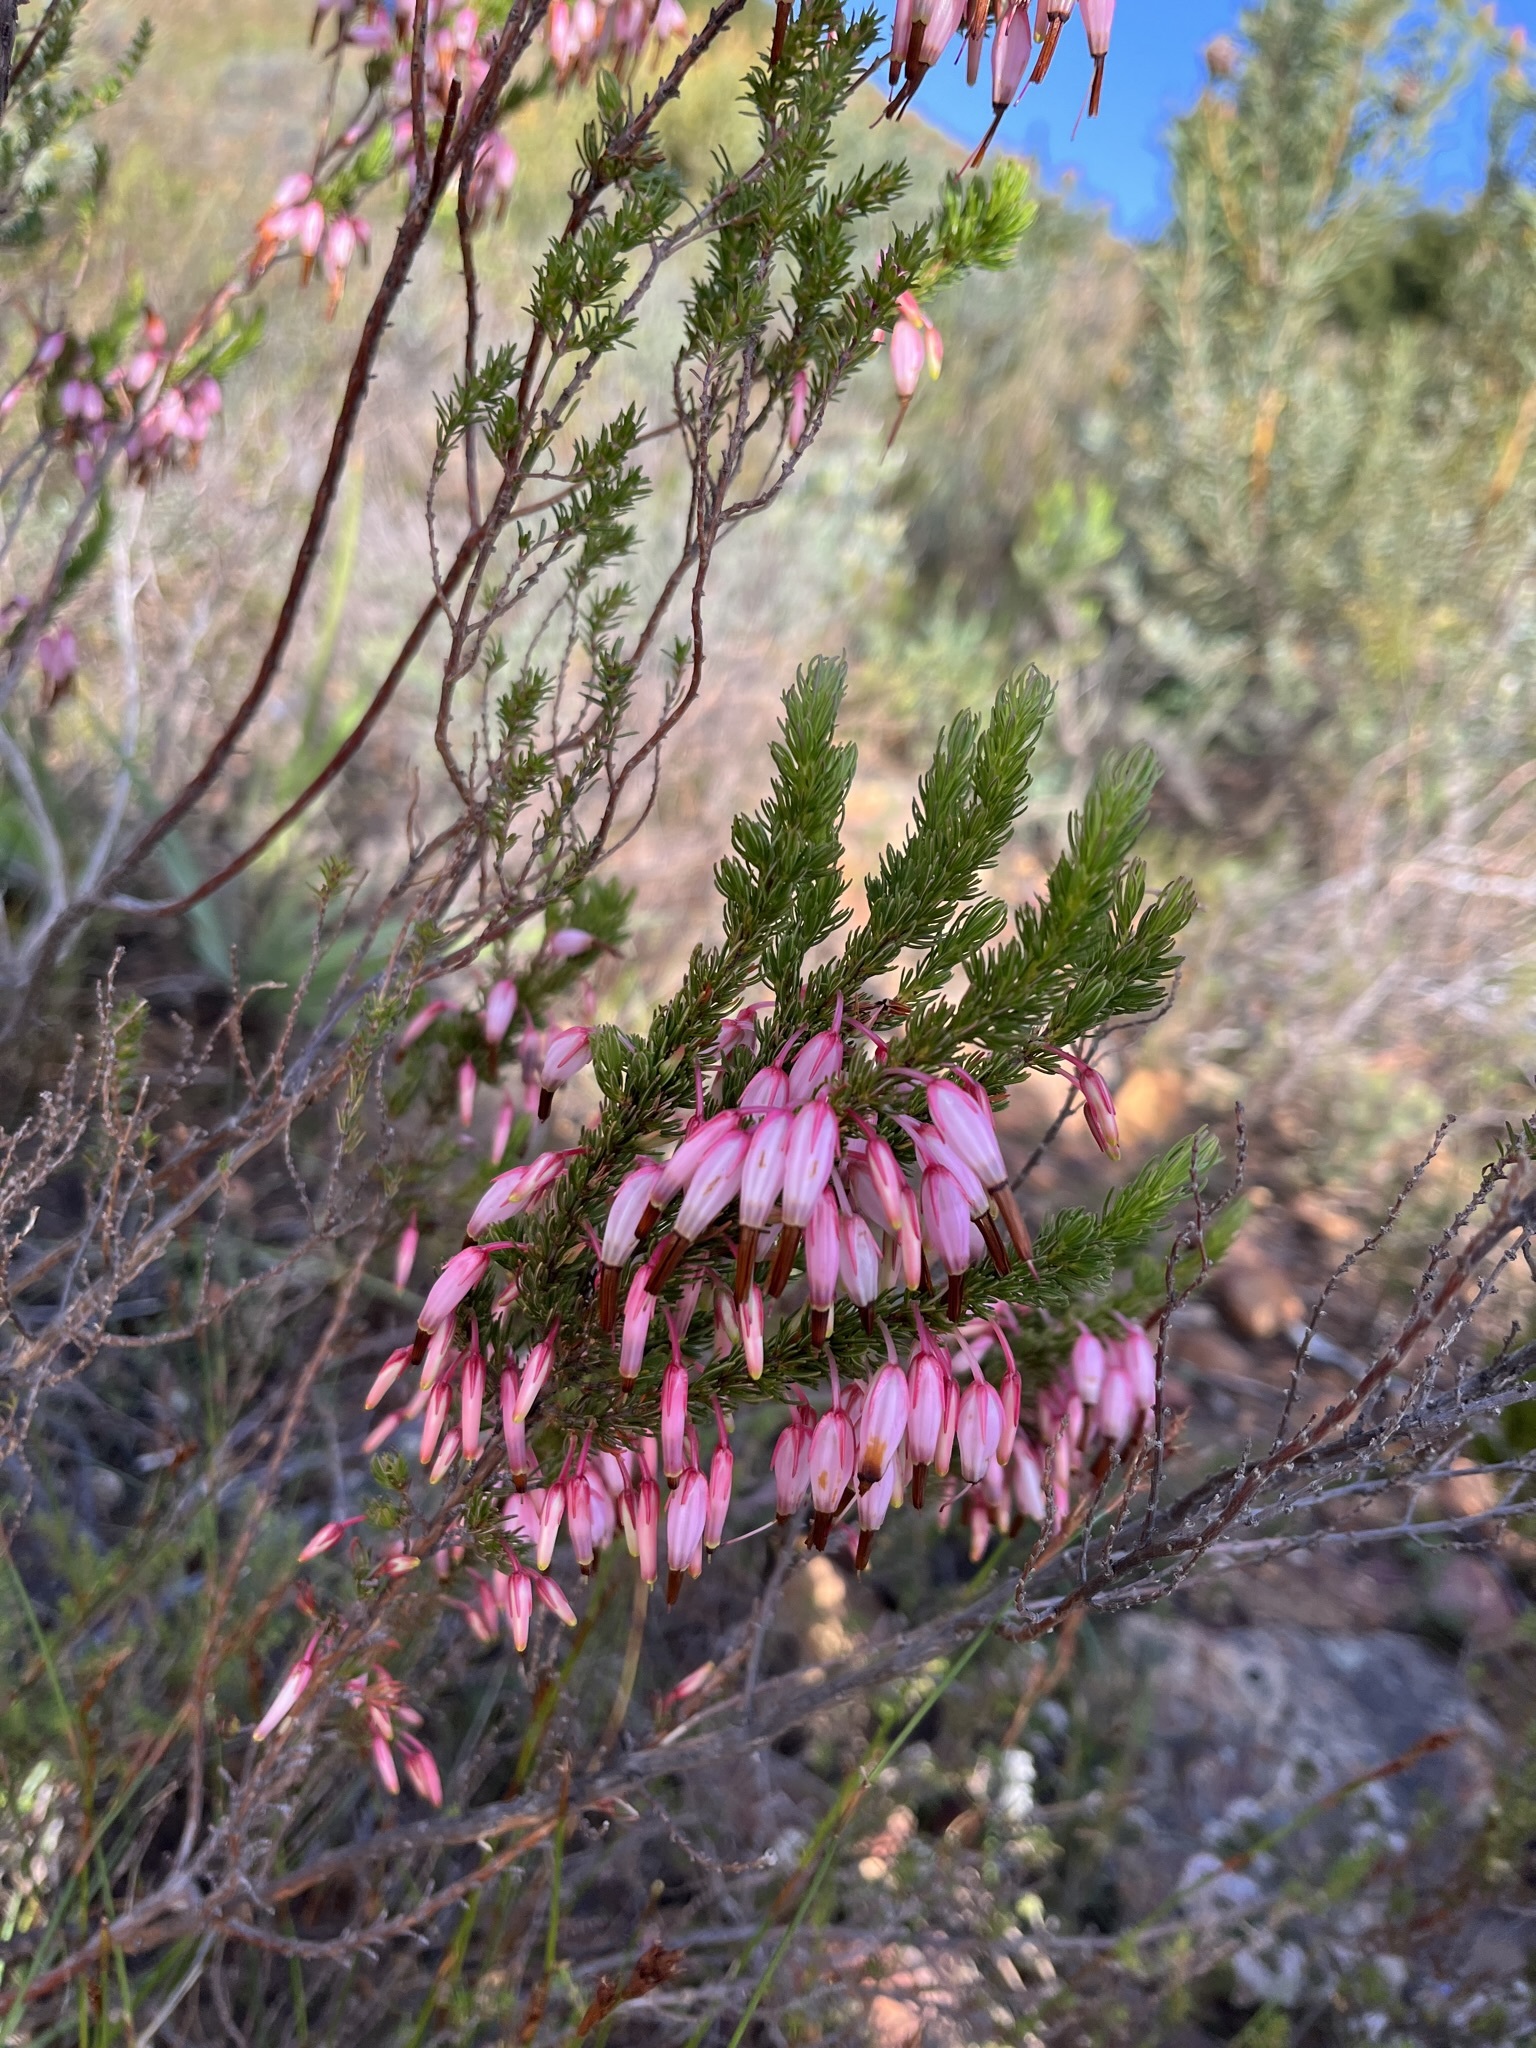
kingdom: Plantae
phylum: Tracheophyta
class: Magnoliopsida
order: Ericales
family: Ericaceae
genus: Erica
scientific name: Erica plukenetii
